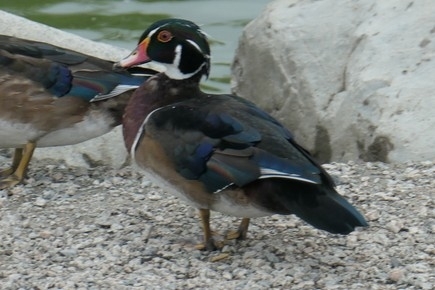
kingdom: Animalia
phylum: Chordata
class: Aves
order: Anseriformes
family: Anatidae
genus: Aix
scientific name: Aix sponsa
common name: Wood duck
